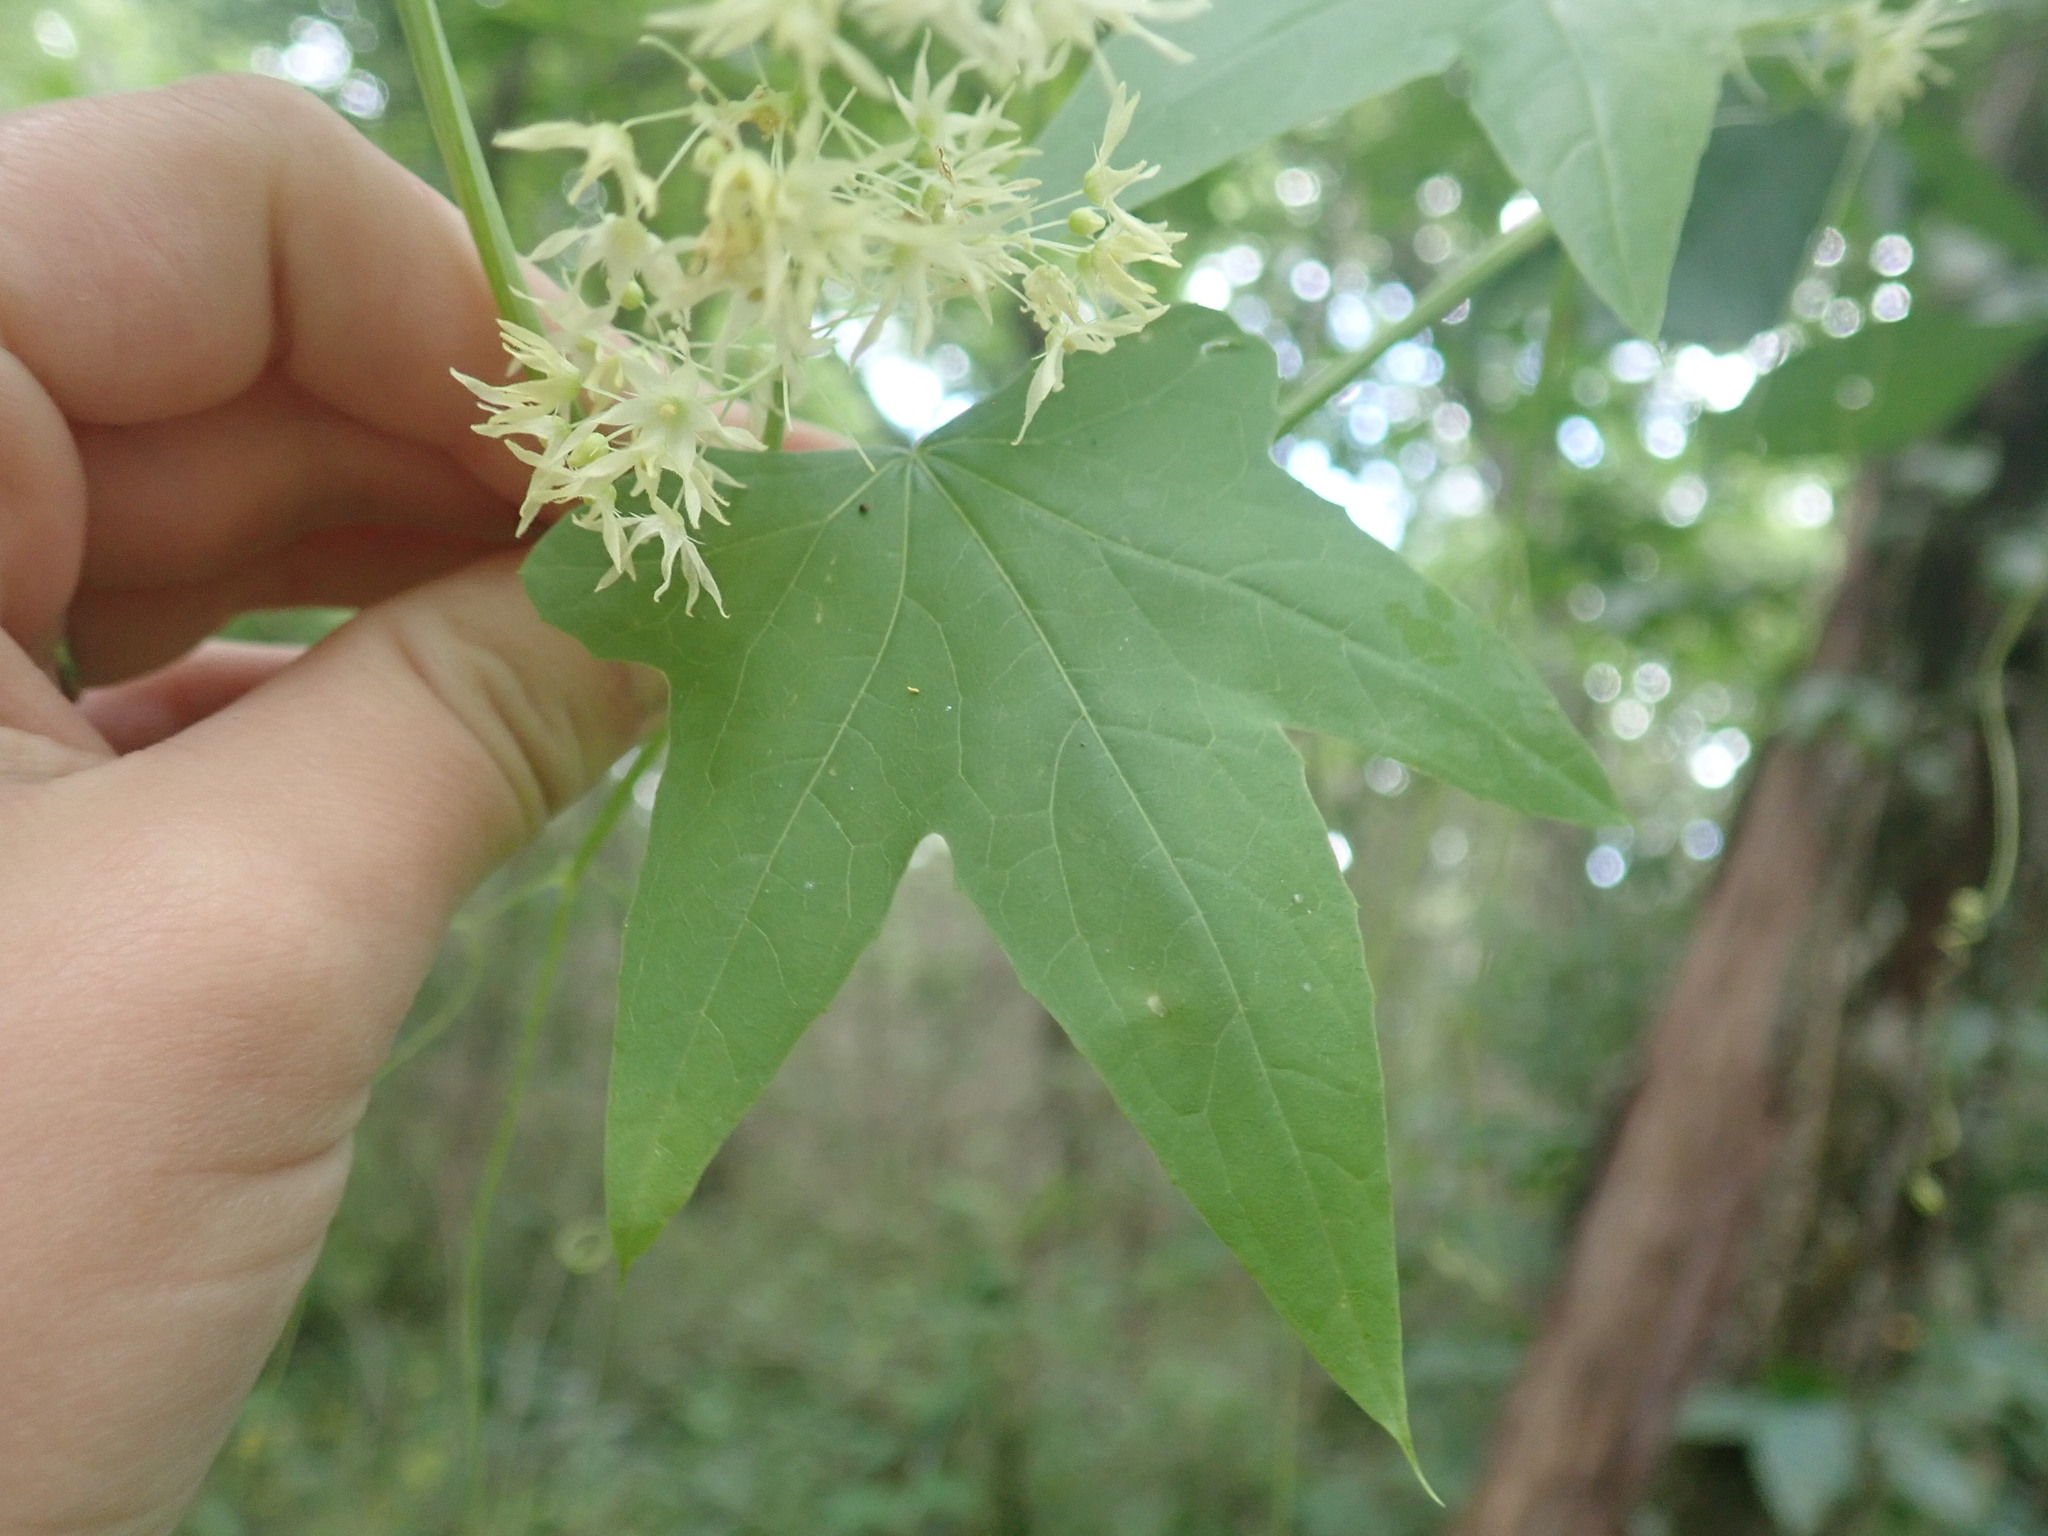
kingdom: Plantae
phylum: Tracheophyta
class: Magnoliopsida
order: Cucurbitales
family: Cucurbitaceae
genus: Echinocystis
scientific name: Echinocystis lobata
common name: Wild cucumber
